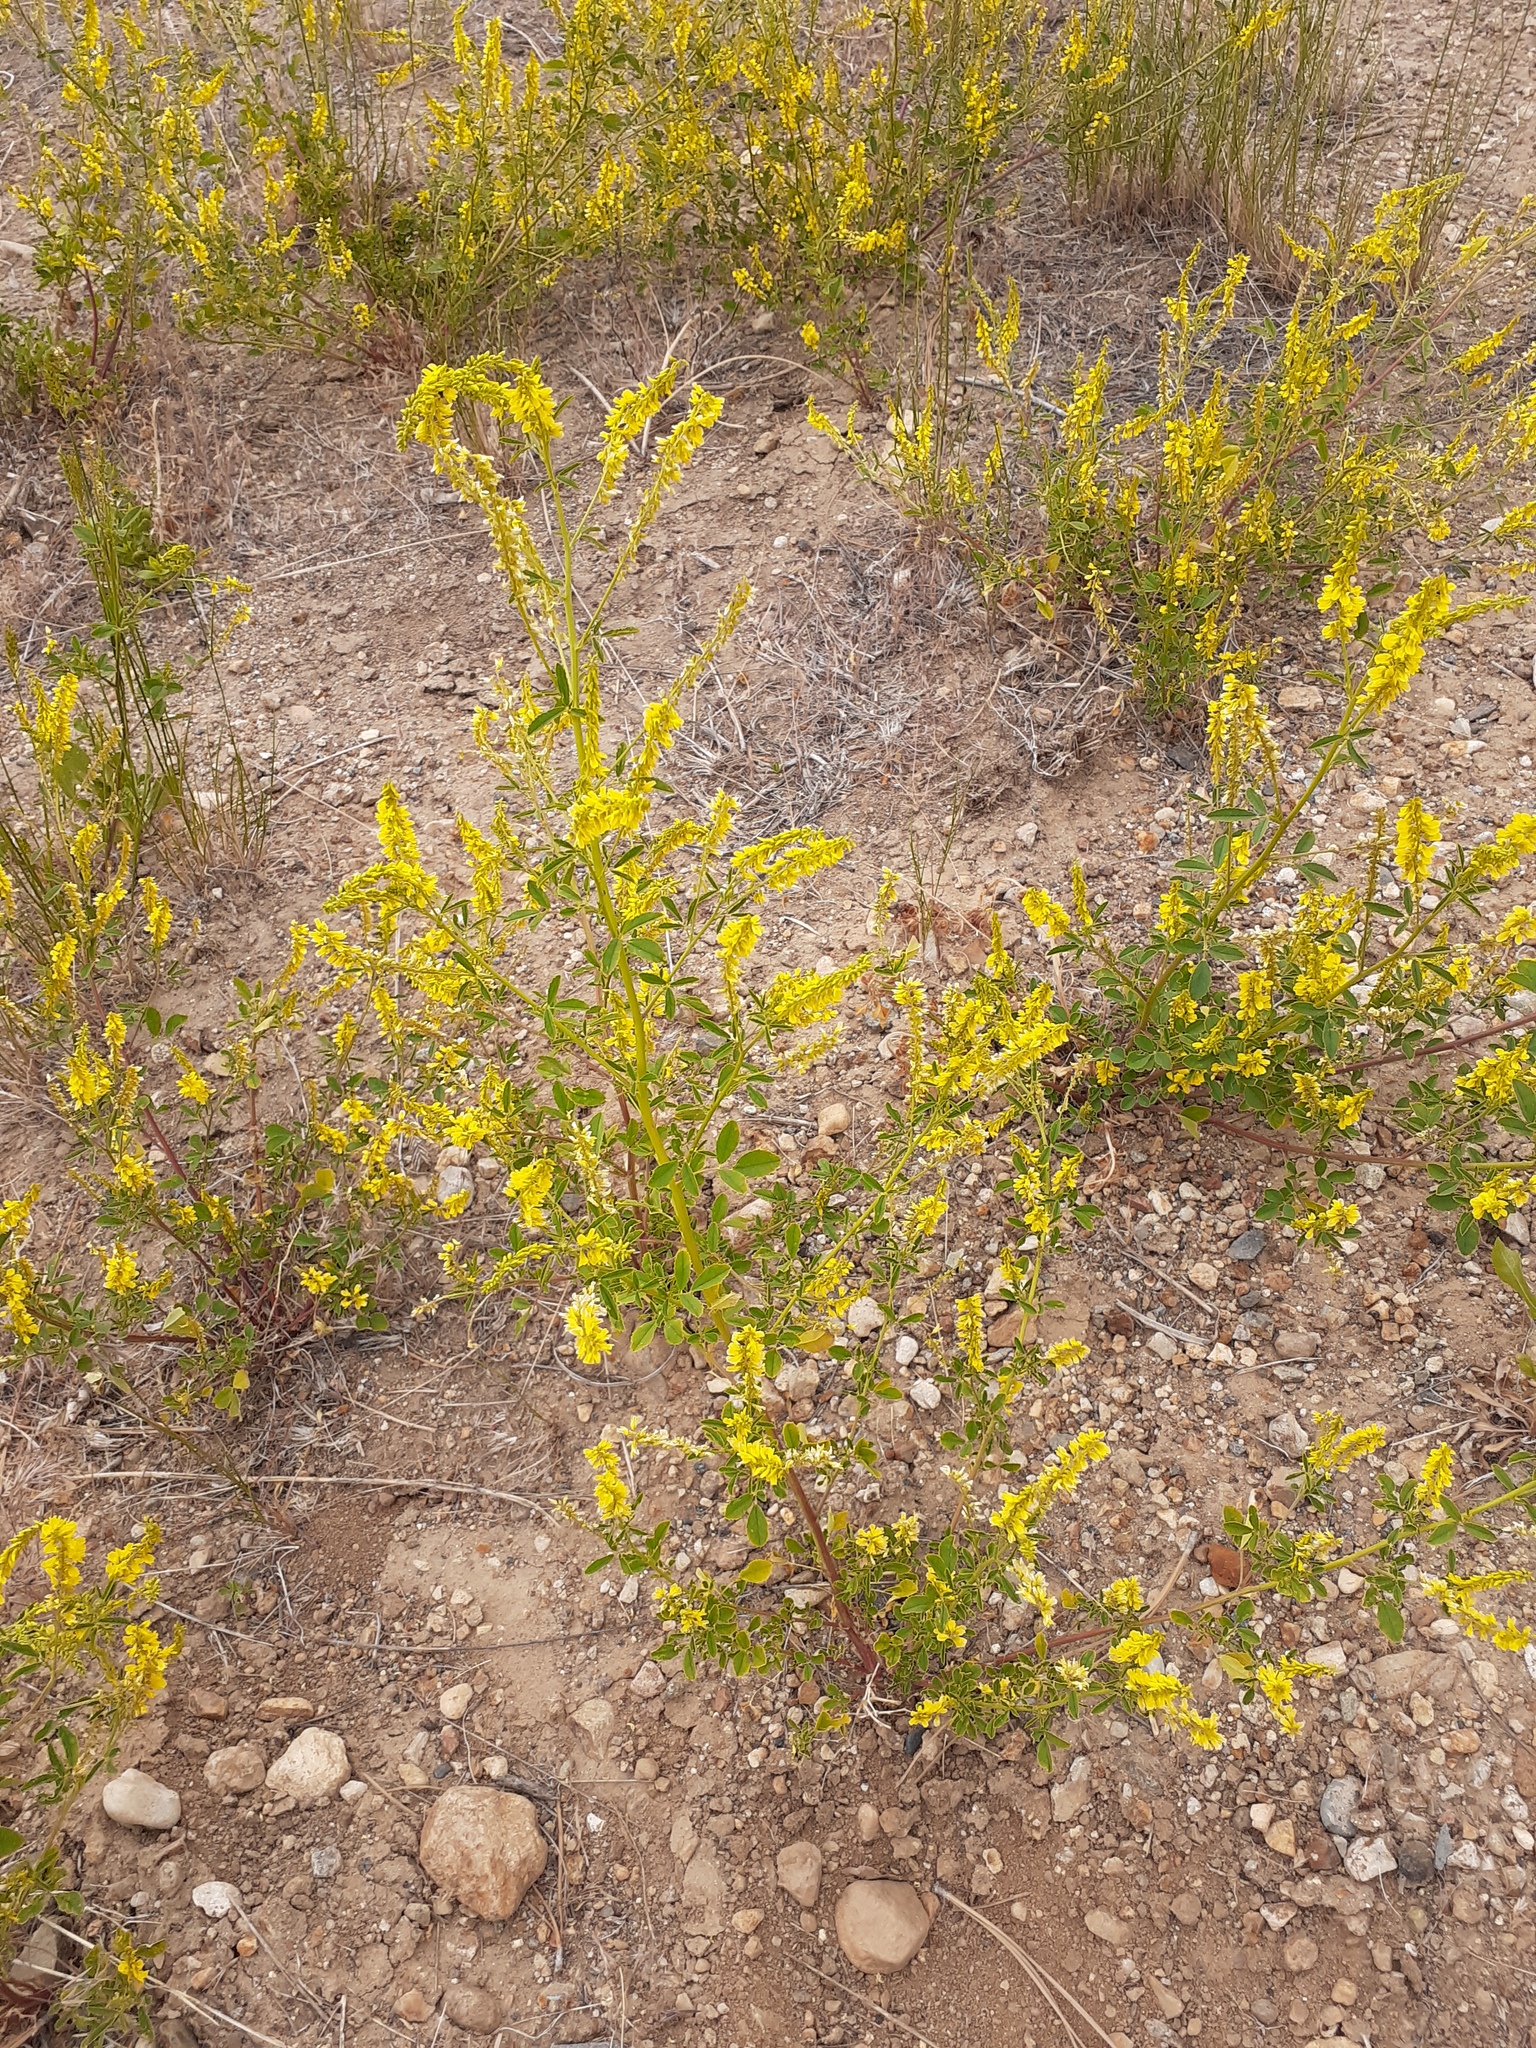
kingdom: Plantae
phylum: Tracheophyta
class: Magnoliopsida
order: Fabales
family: Fabaceae
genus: Melilotus
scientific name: Melilotus officinalis
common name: Sweetclover
